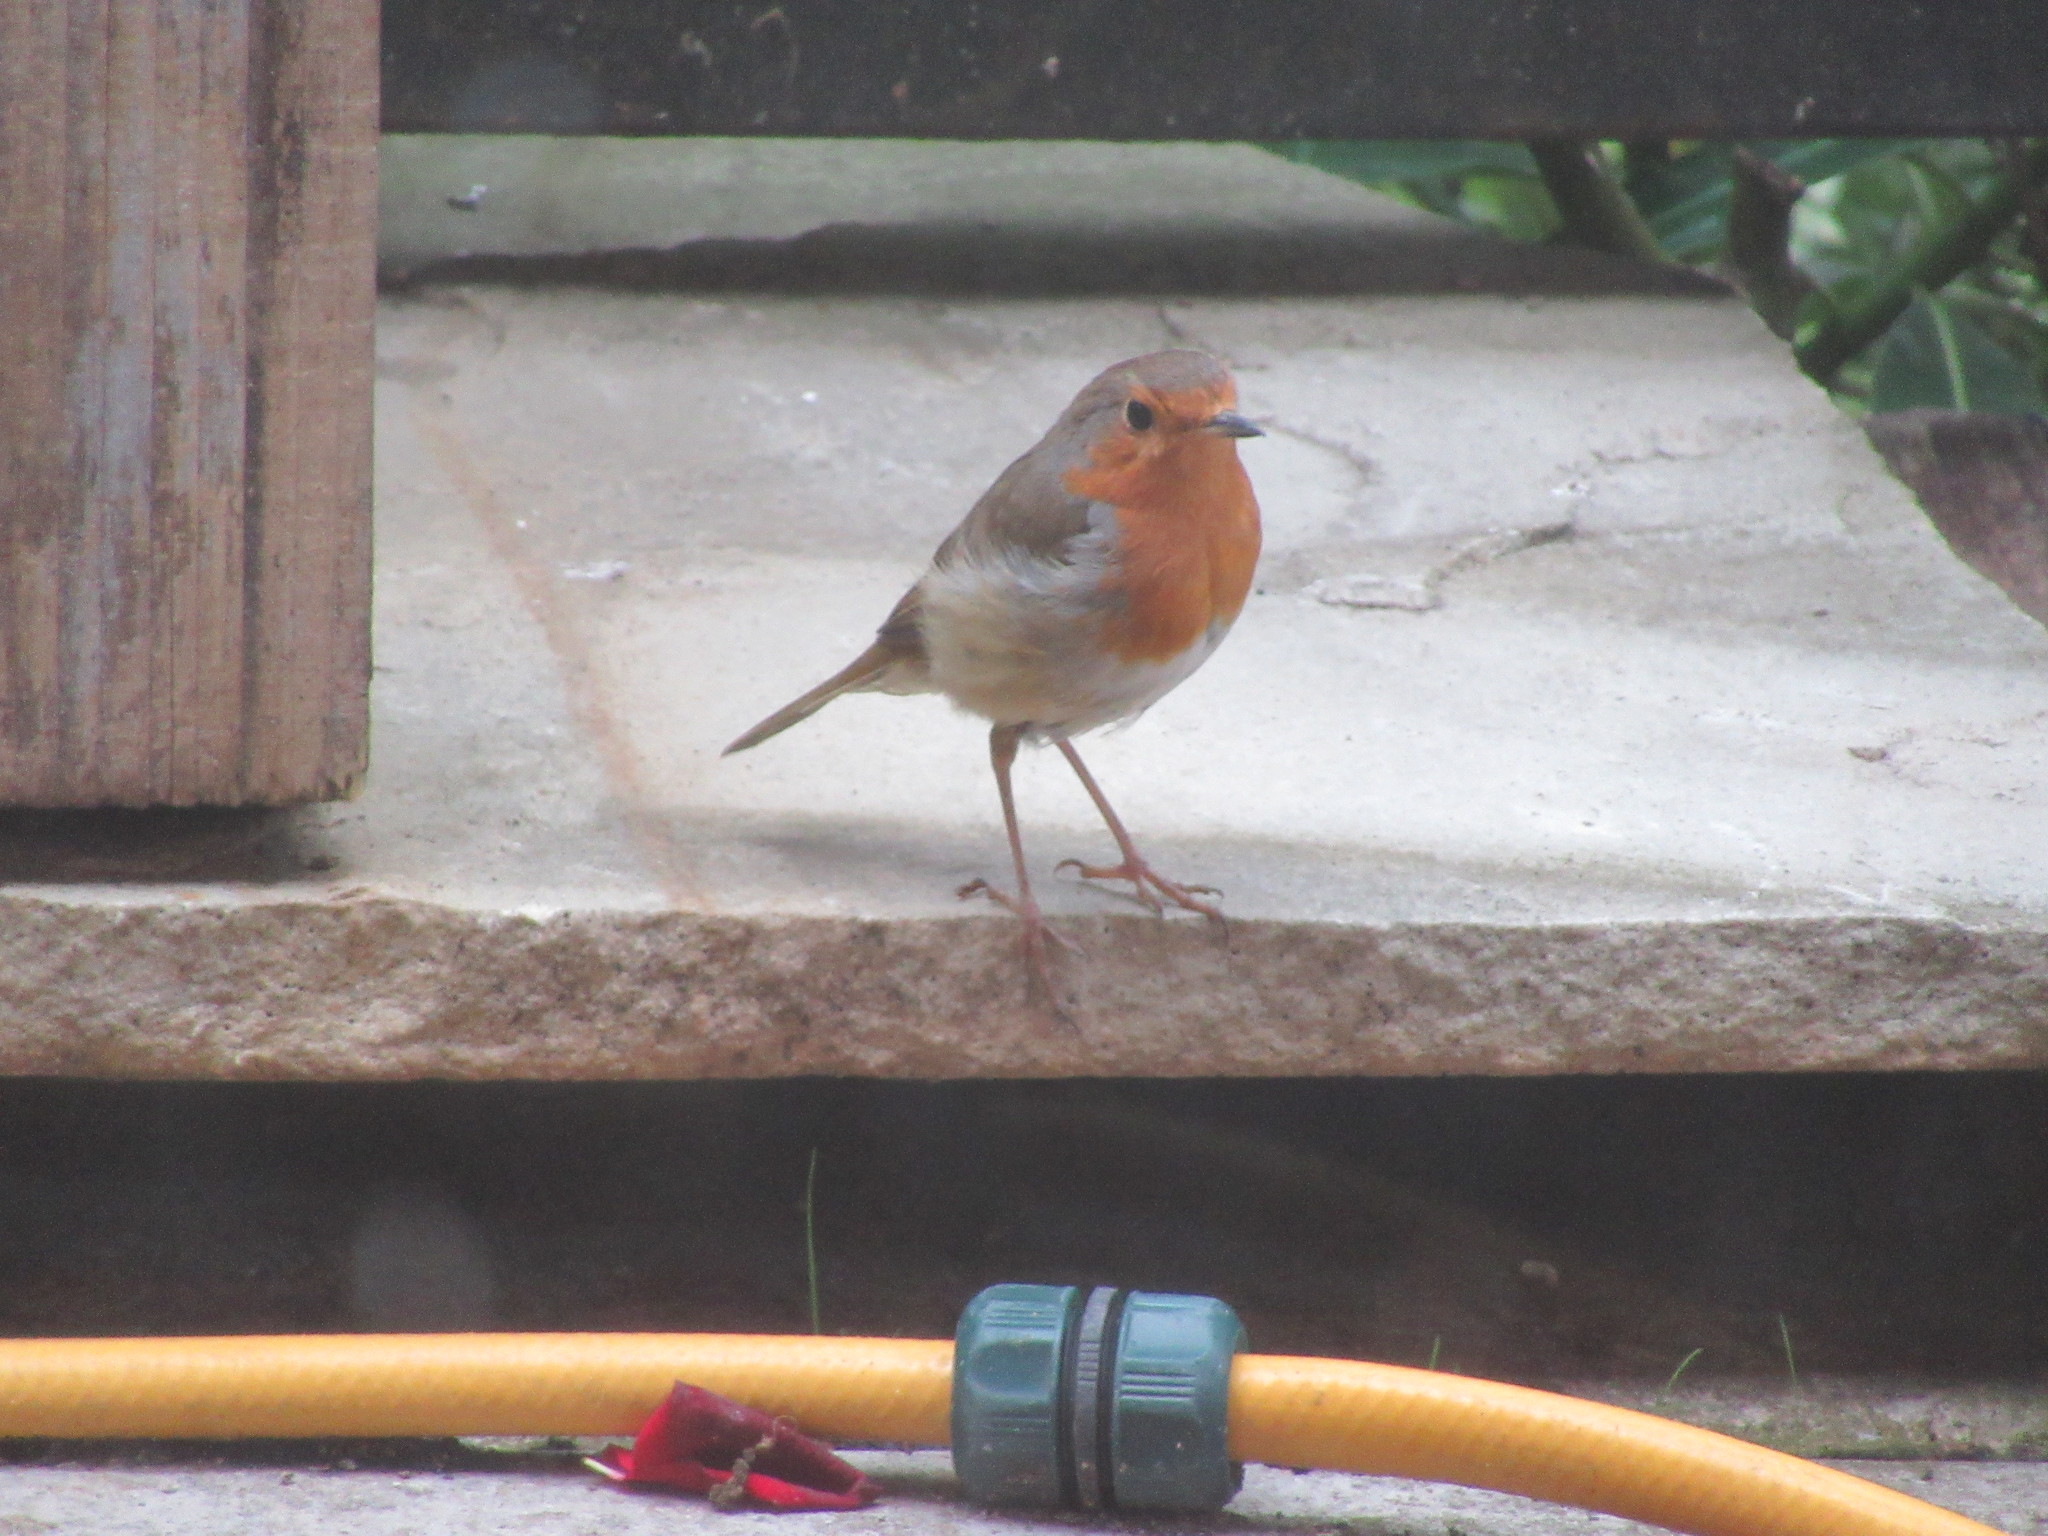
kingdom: Animalia
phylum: Chordata
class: Aves
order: Passeriformes
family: Muscicapidae
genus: Erithacus
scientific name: Erithacus rubecula
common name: European robin
